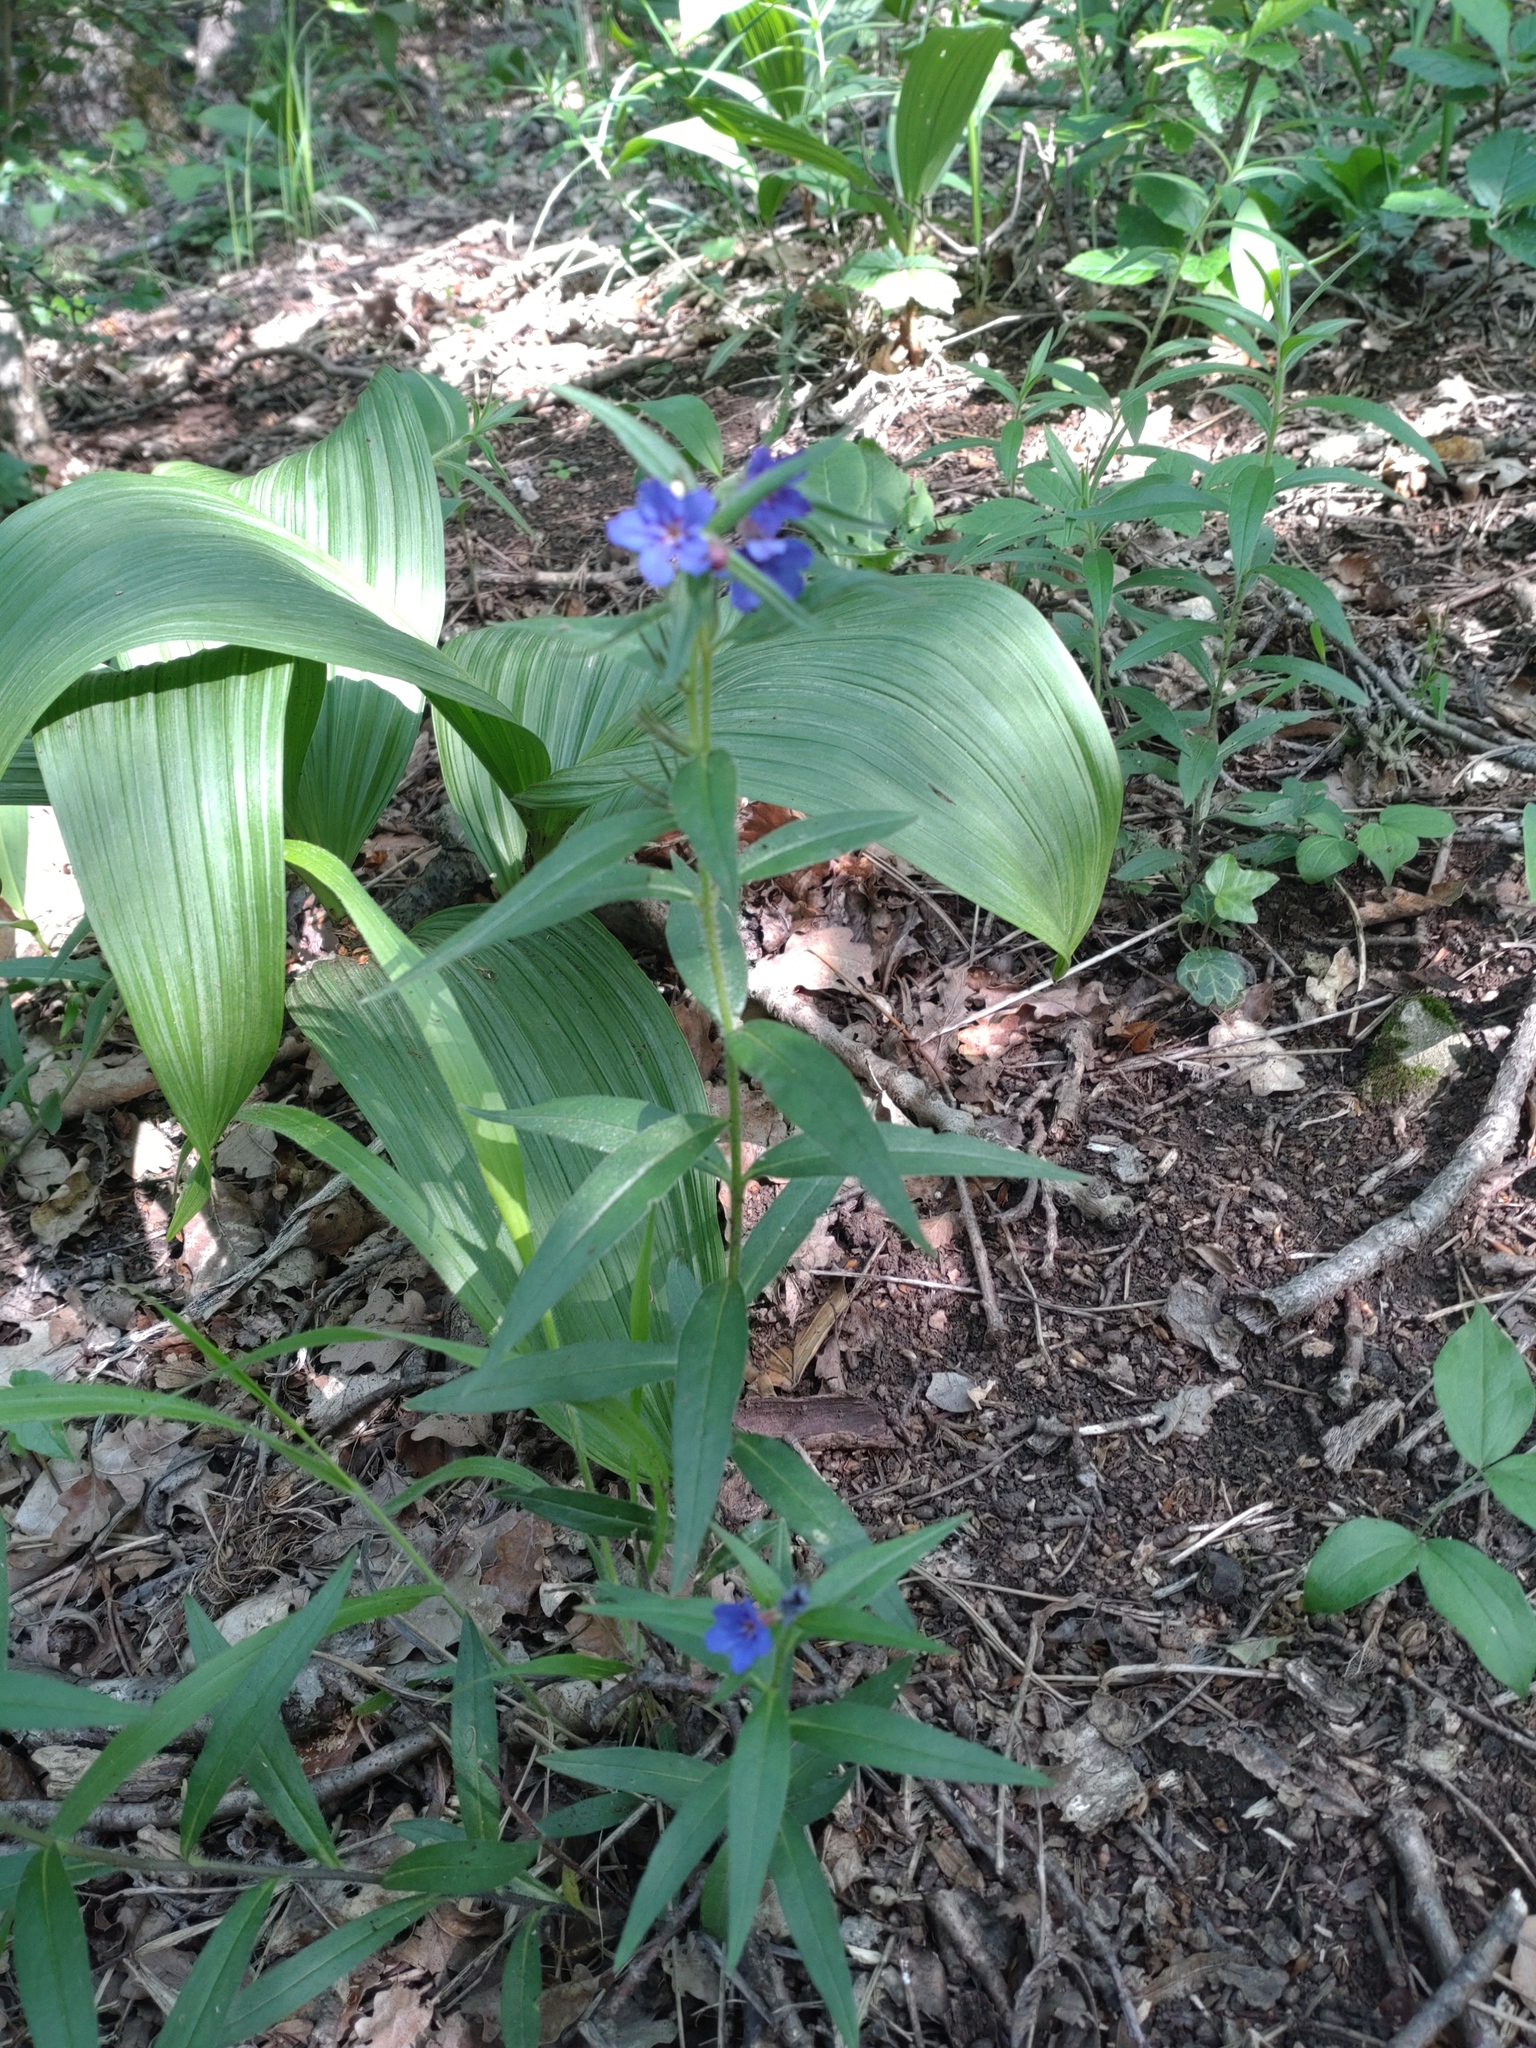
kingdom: Plantae
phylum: Tracheophyta
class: Magnoliopsida
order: Boraginales
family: Boraginaceae
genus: Aegonychon
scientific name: Aegonychon purpurocaeruleum
